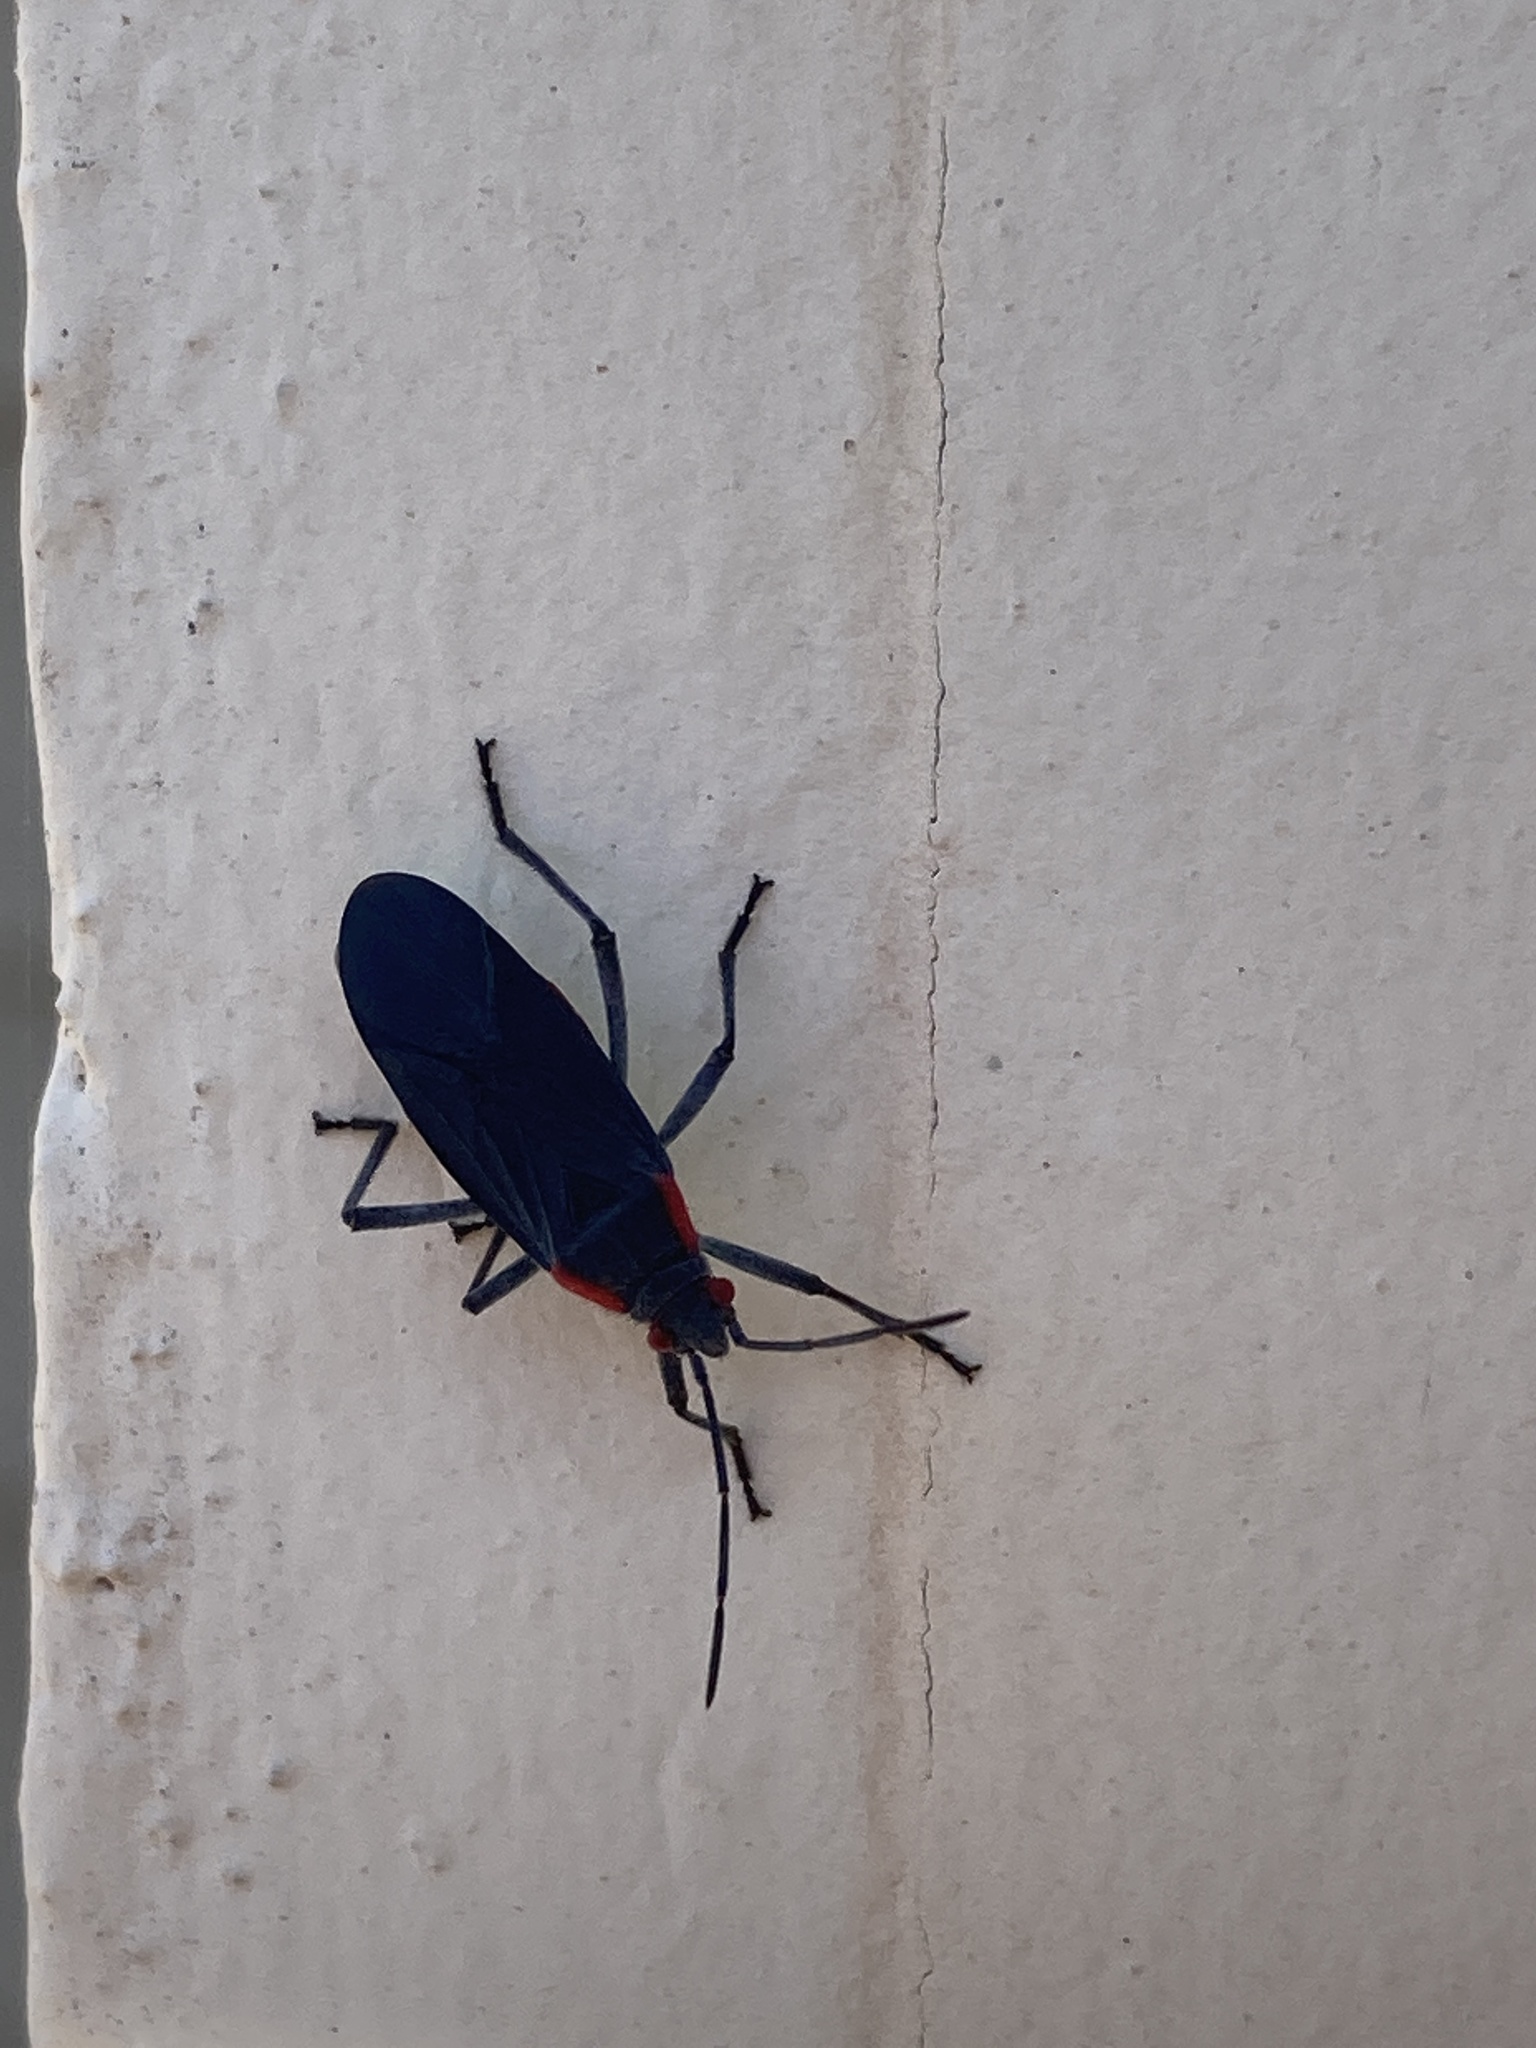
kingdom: Animalia
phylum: Arthropoda
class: Insecta
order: Hemiptera
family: Rhopalidae
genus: Jadera
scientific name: Jadera haematoloma
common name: Red-shouldered bug
